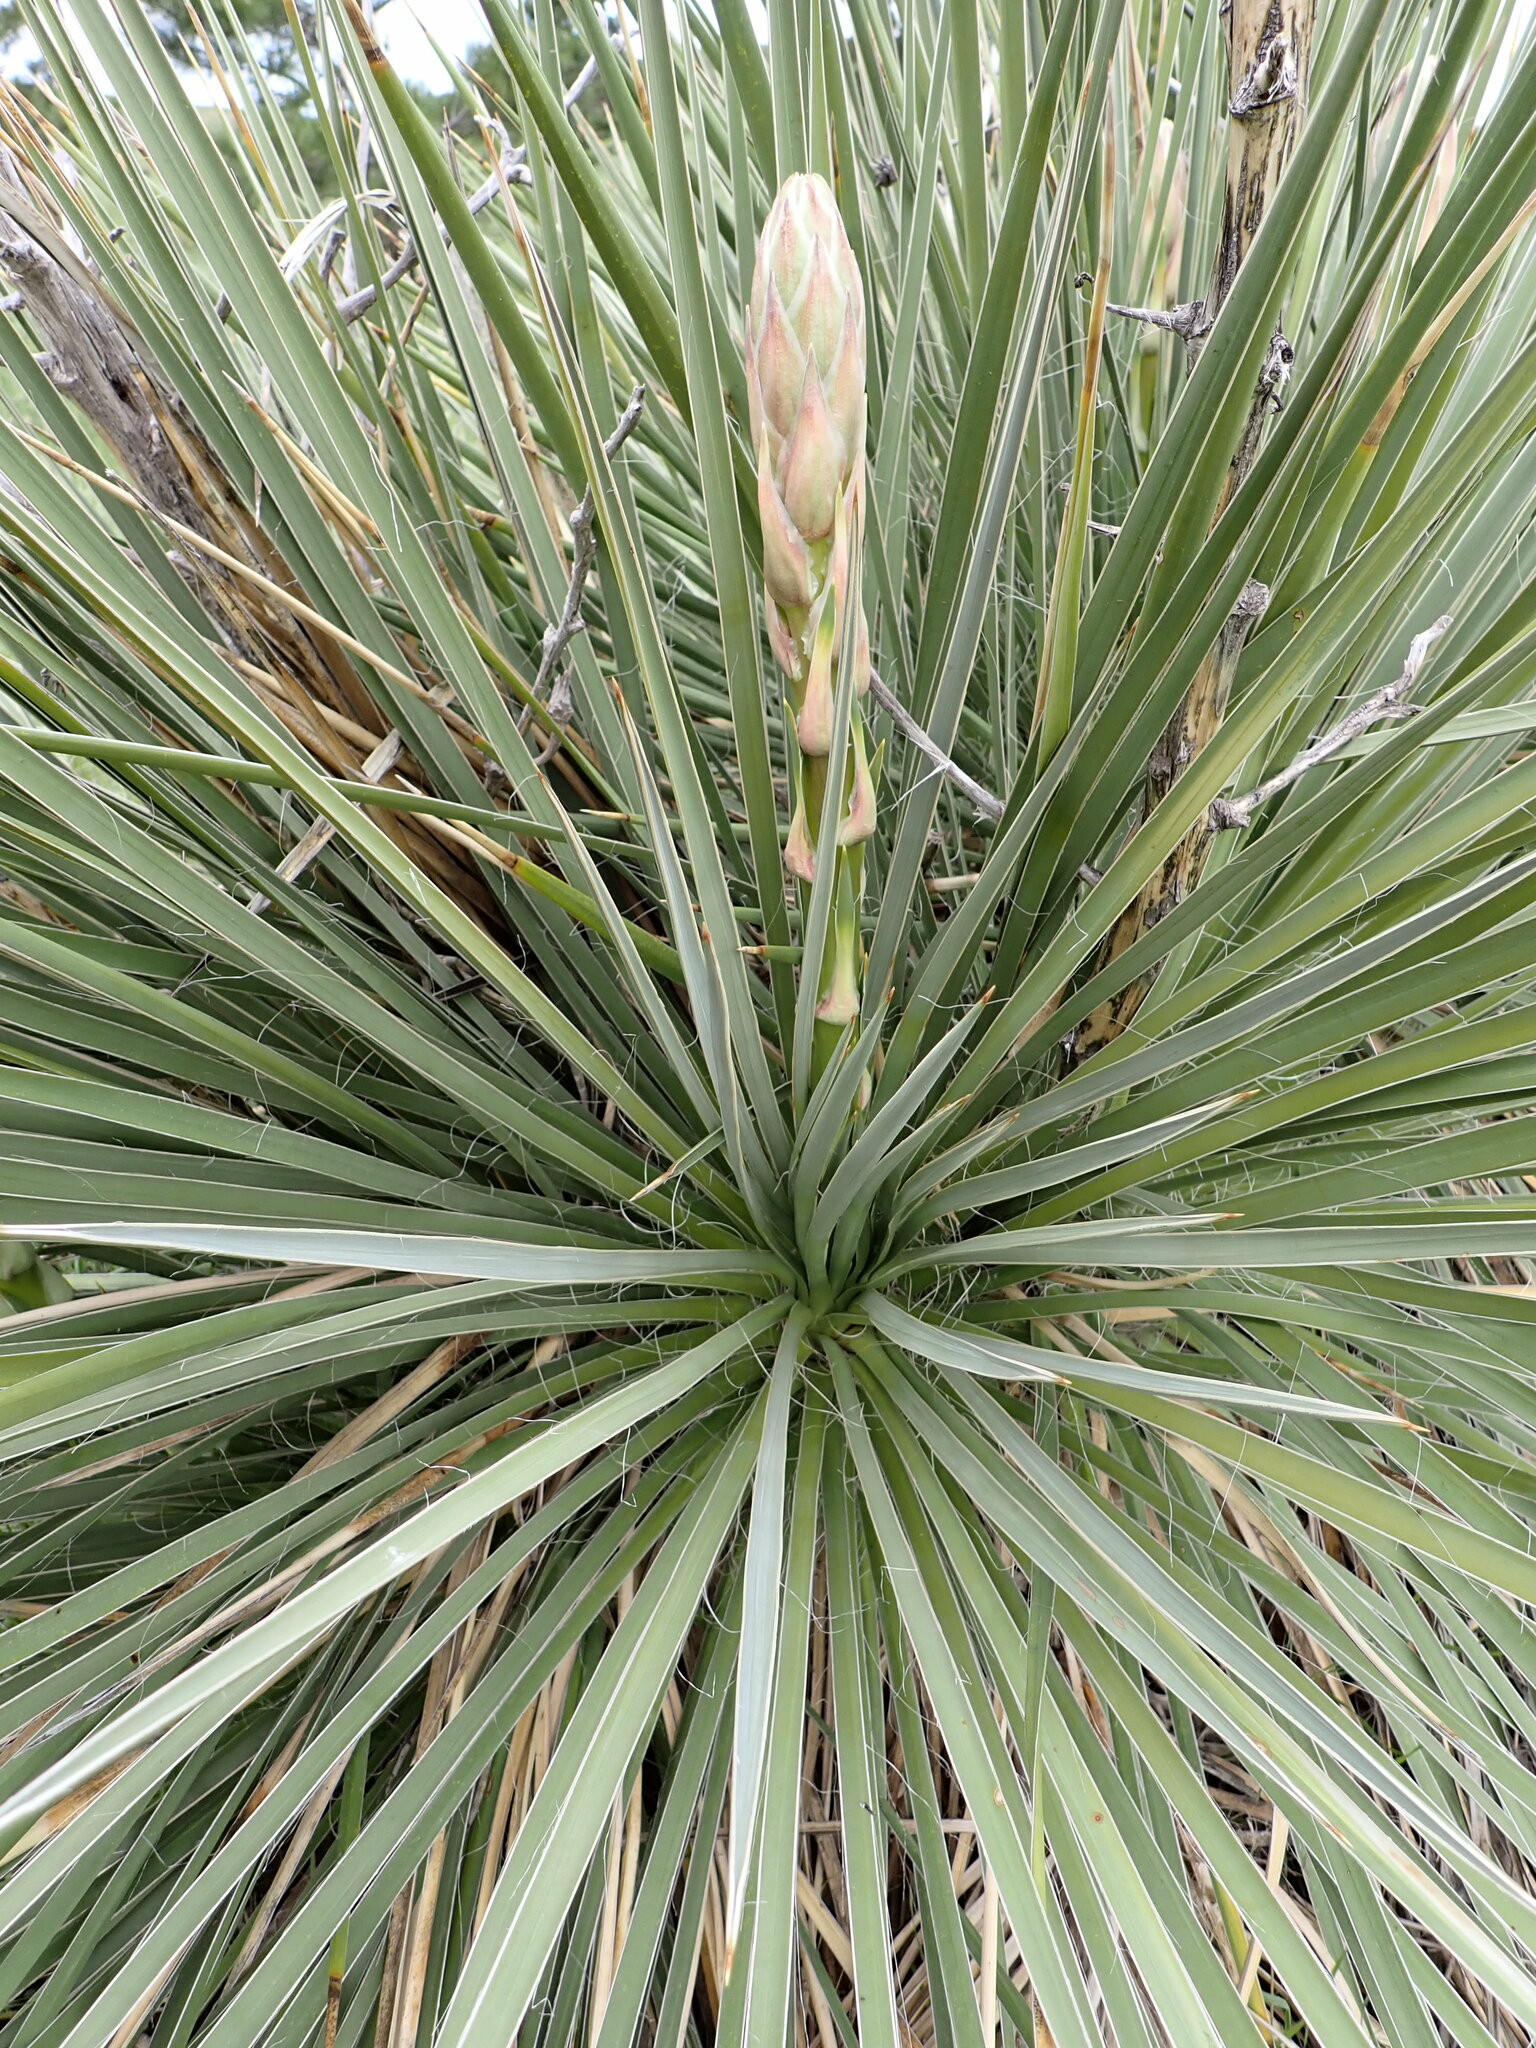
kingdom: Plantae
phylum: Tracheophyta
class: Liliopsida
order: Asparagales
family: Asparagaceae
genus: Yucca
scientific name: Yucca glauca
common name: Great plains yucca
